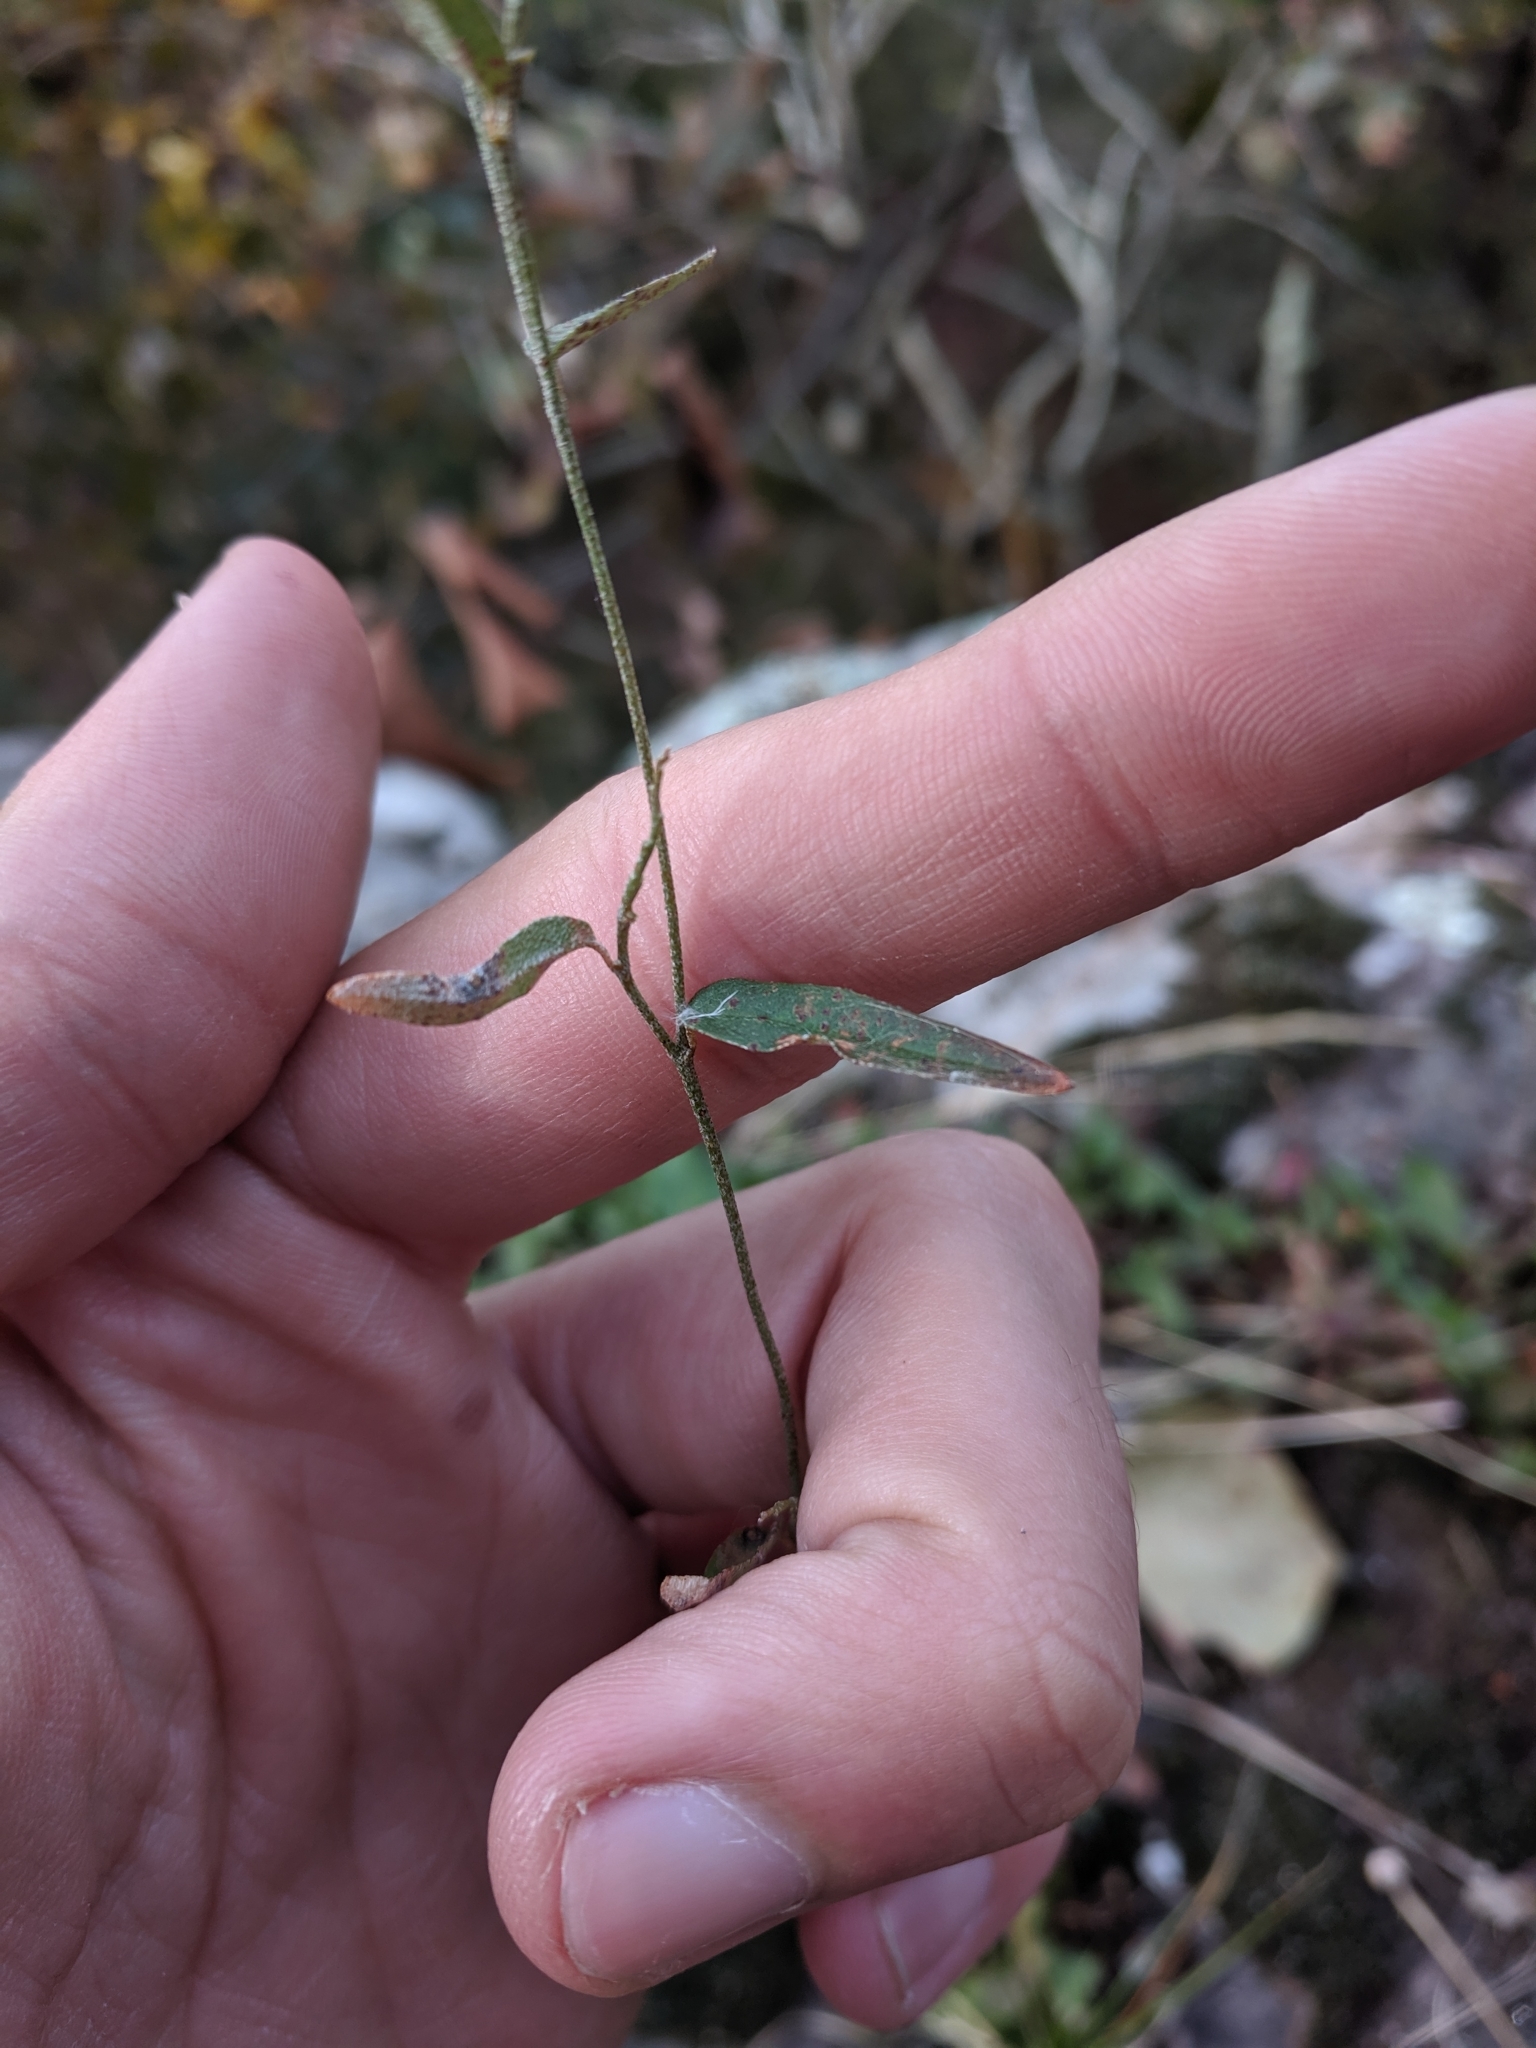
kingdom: Plantae
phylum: Tracheophyta
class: Magnoliopsida
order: Malpighiales
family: Euphorbiaceae
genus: Croton
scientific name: Croton michauxii
